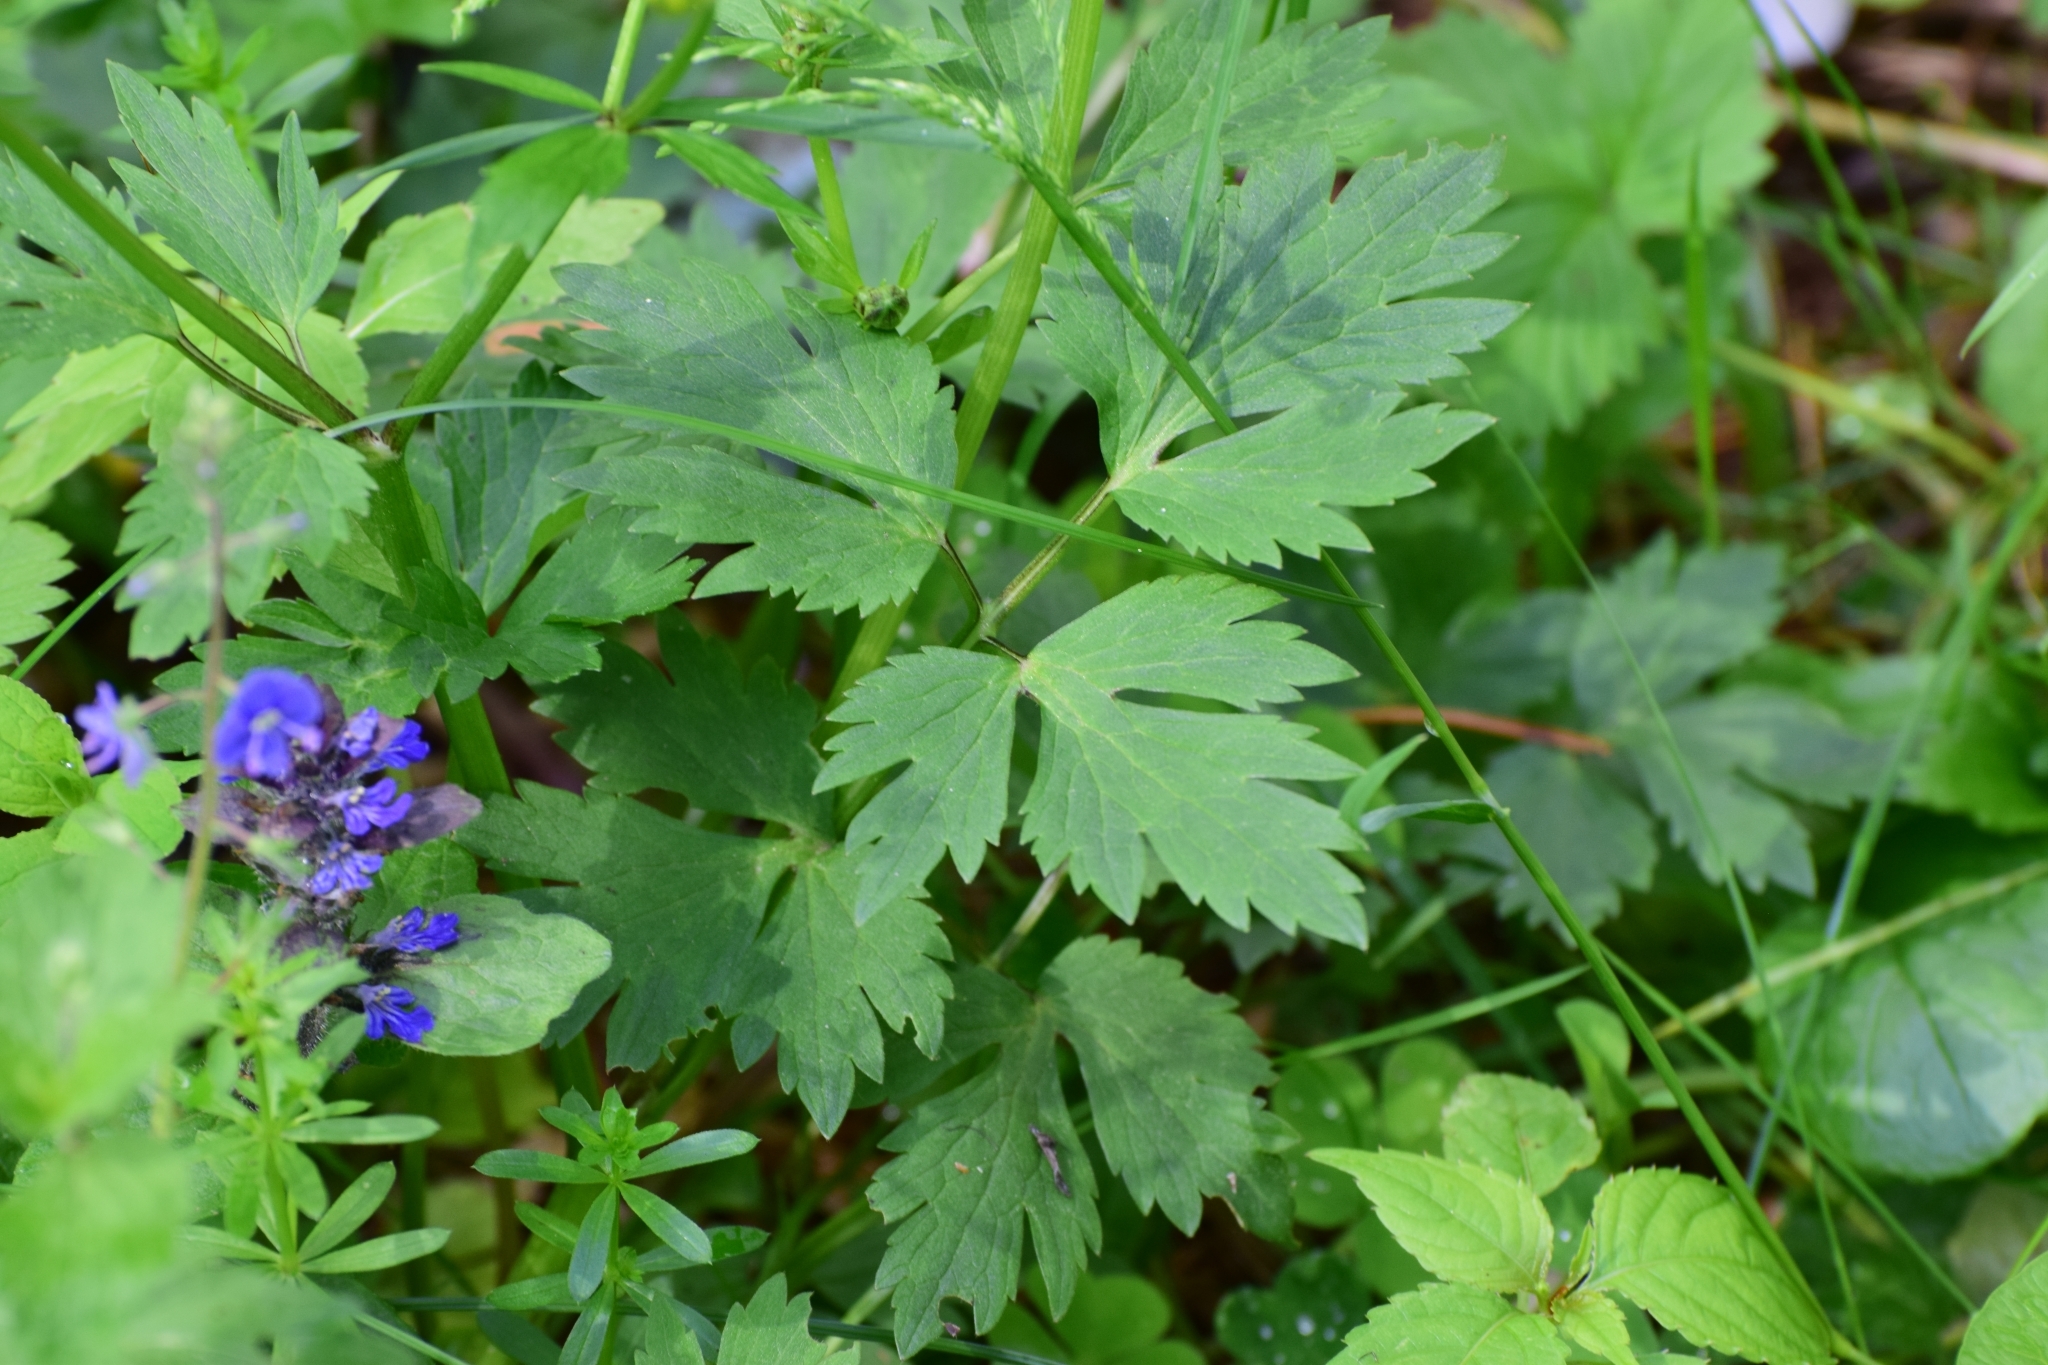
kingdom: Plantae
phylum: Tracheophyta
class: Magnoliopsida
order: Ranunculales
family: Ranunculaceae
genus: Ranunculus
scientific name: Ranunculus repens
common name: Creeping buttercup
